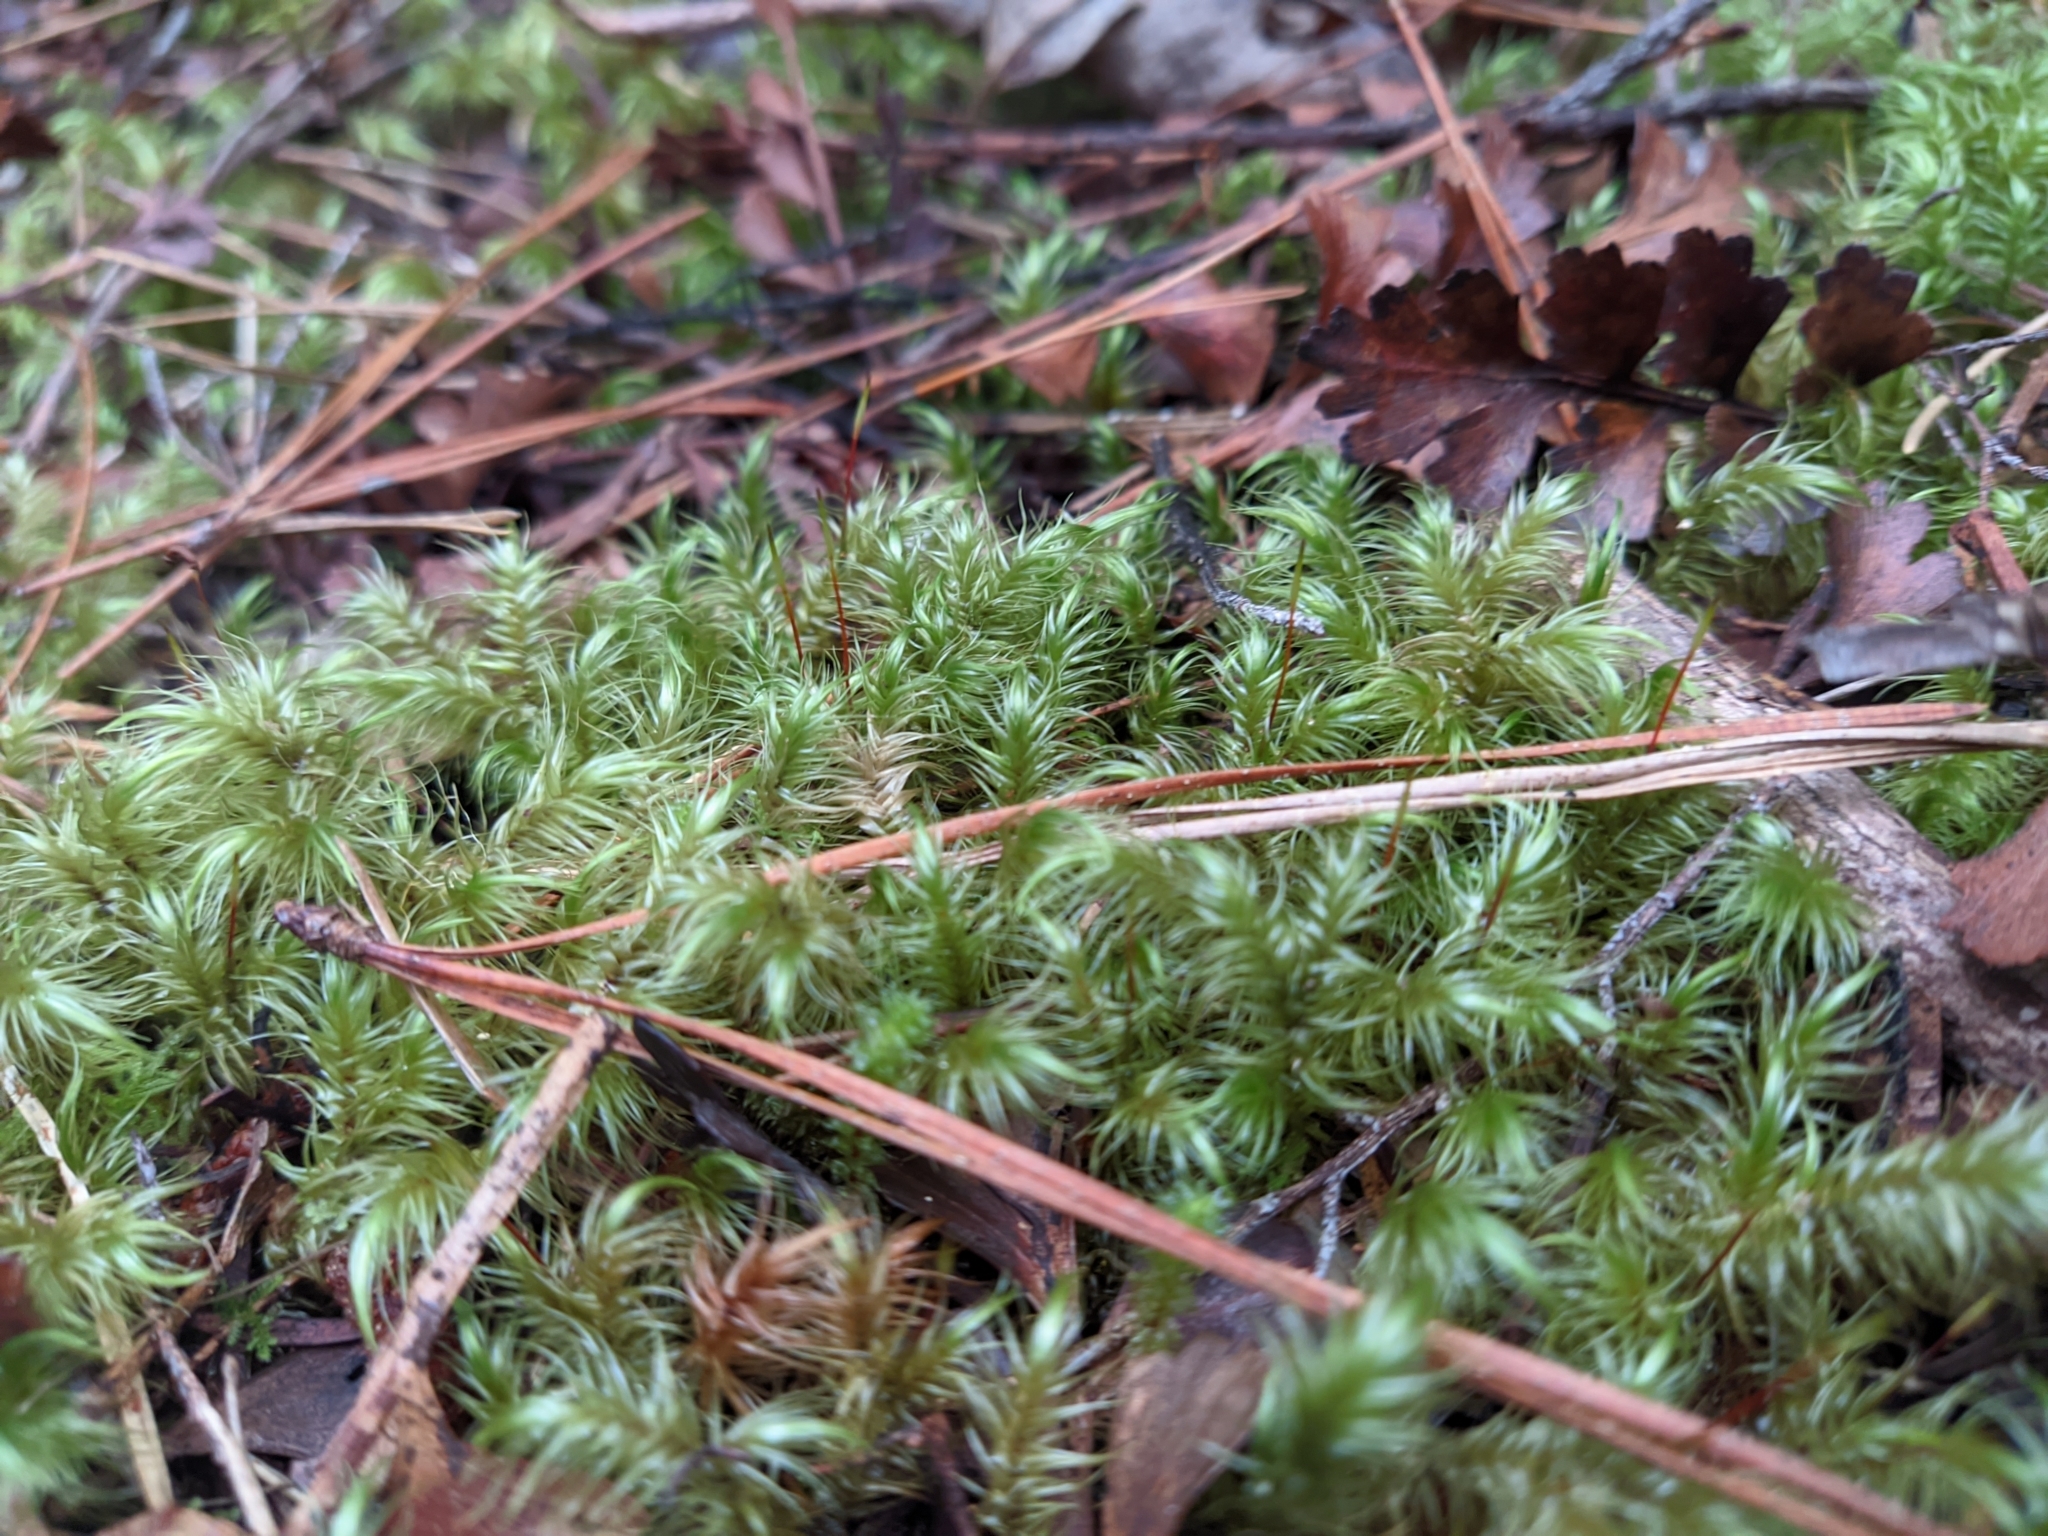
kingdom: Plantae
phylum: Bryophyta
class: Bryopsida
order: Dicranales
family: Dicranaceae
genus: Dicranoloma
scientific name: Dicranoloma billardieri
